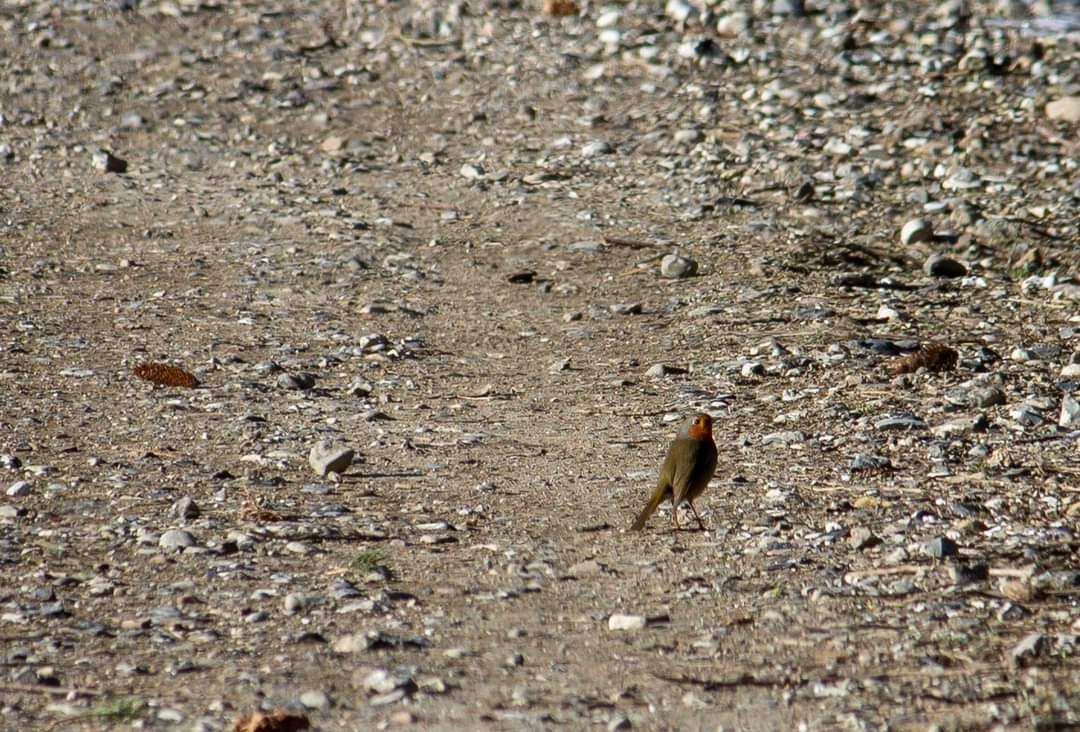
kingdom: Animalia
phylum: Chordata
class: Aves
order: Passeriformes
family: Muscicapidae
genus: Erithacus
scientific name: Erithacus rubecula
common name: European robin
